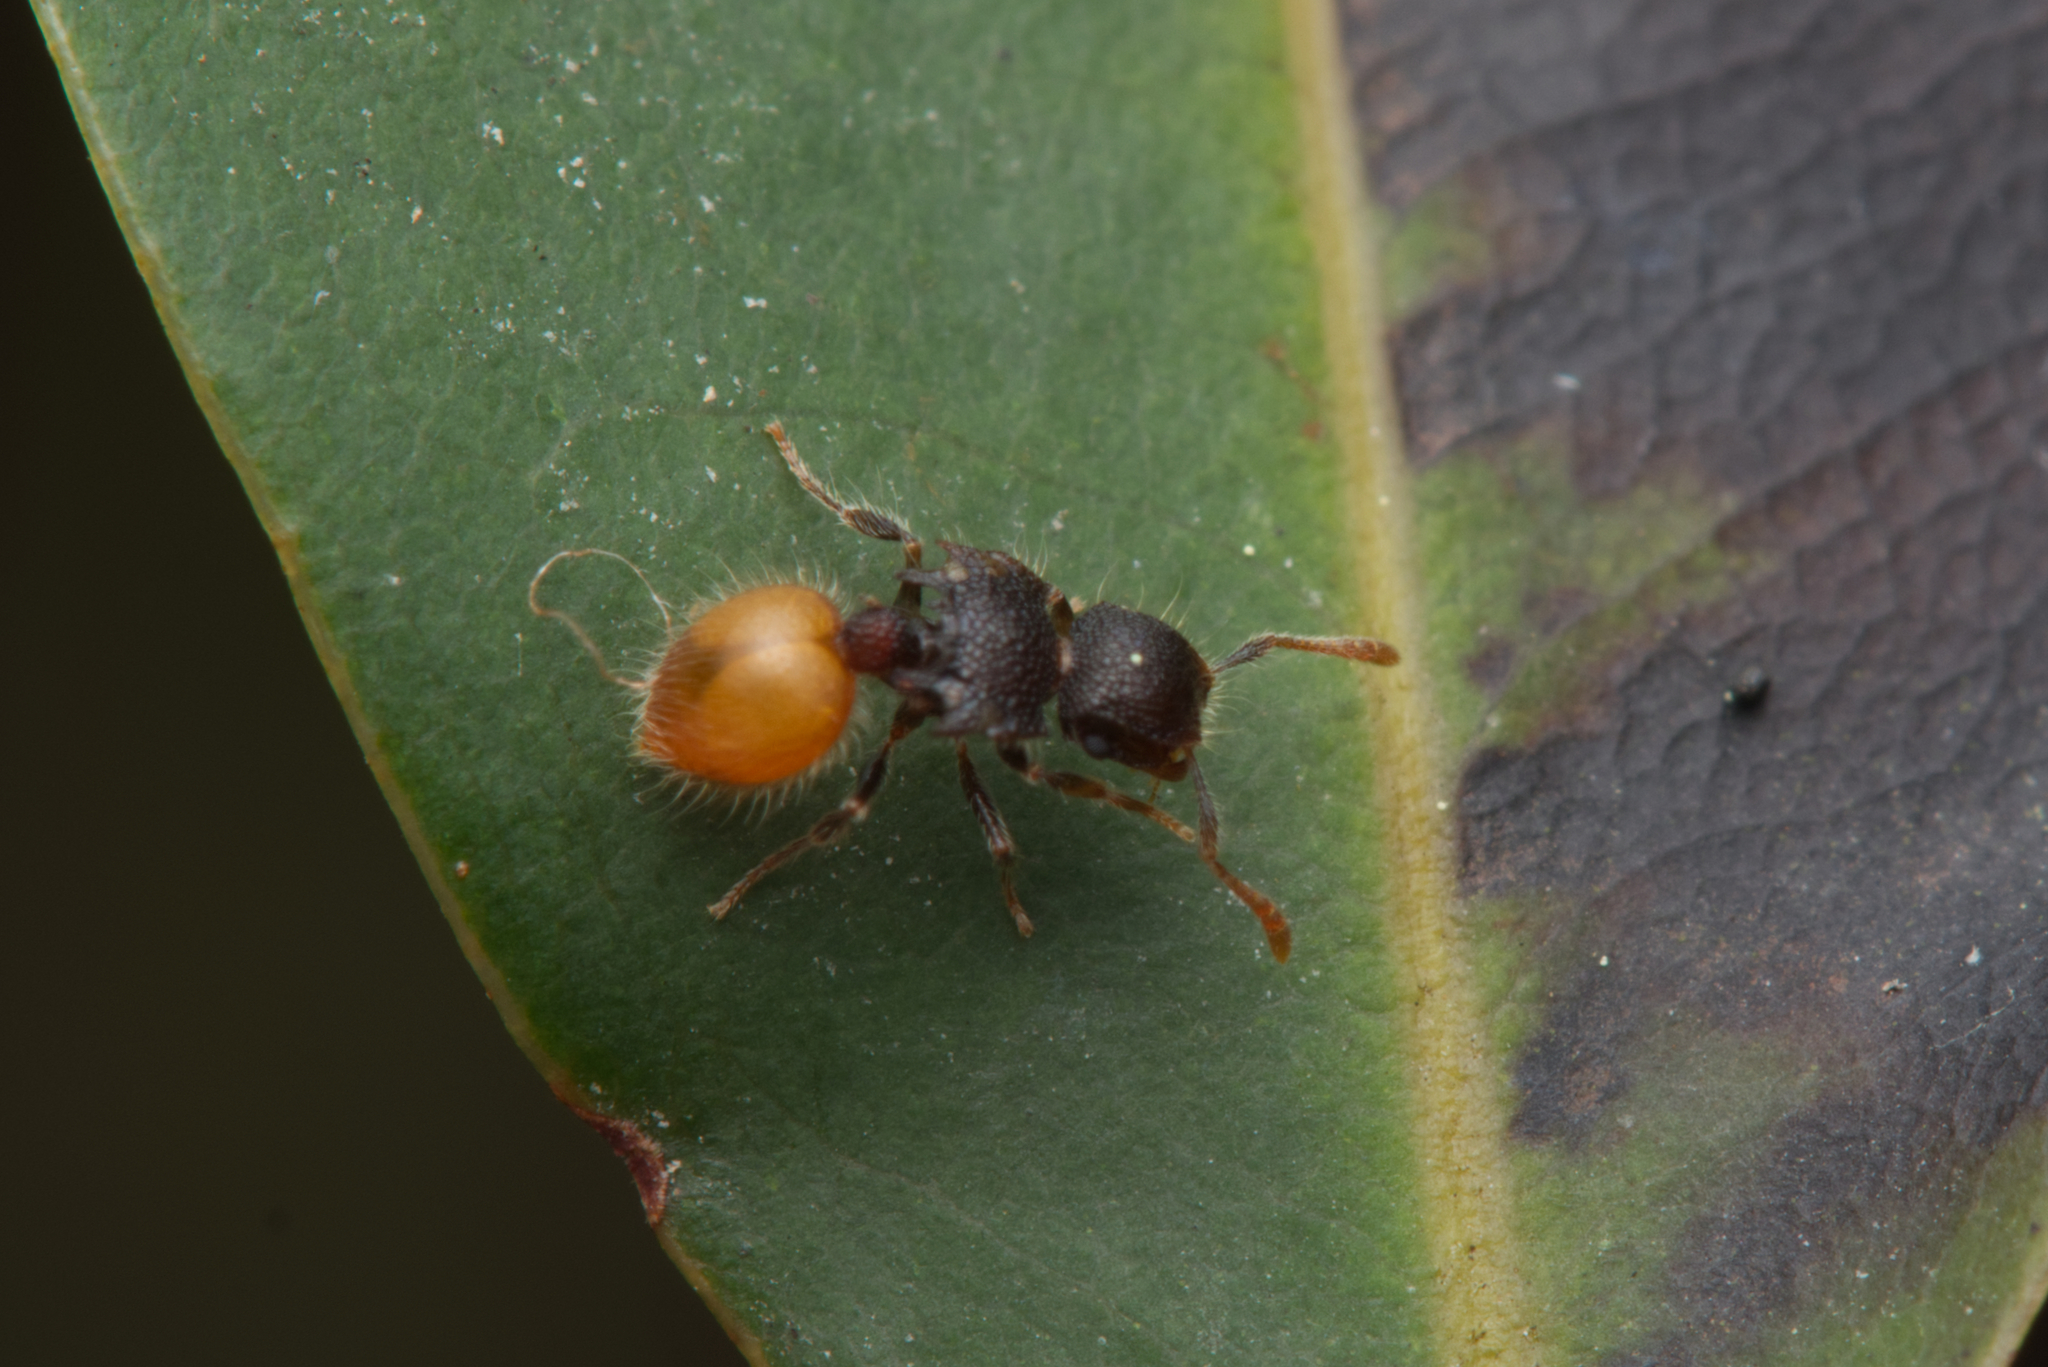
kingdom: Animalia
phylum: Arthropoda
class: Insecta
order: Hymenoptera
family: Formicidae
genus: Meranoplus
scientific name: Meranoplus hirsutus
